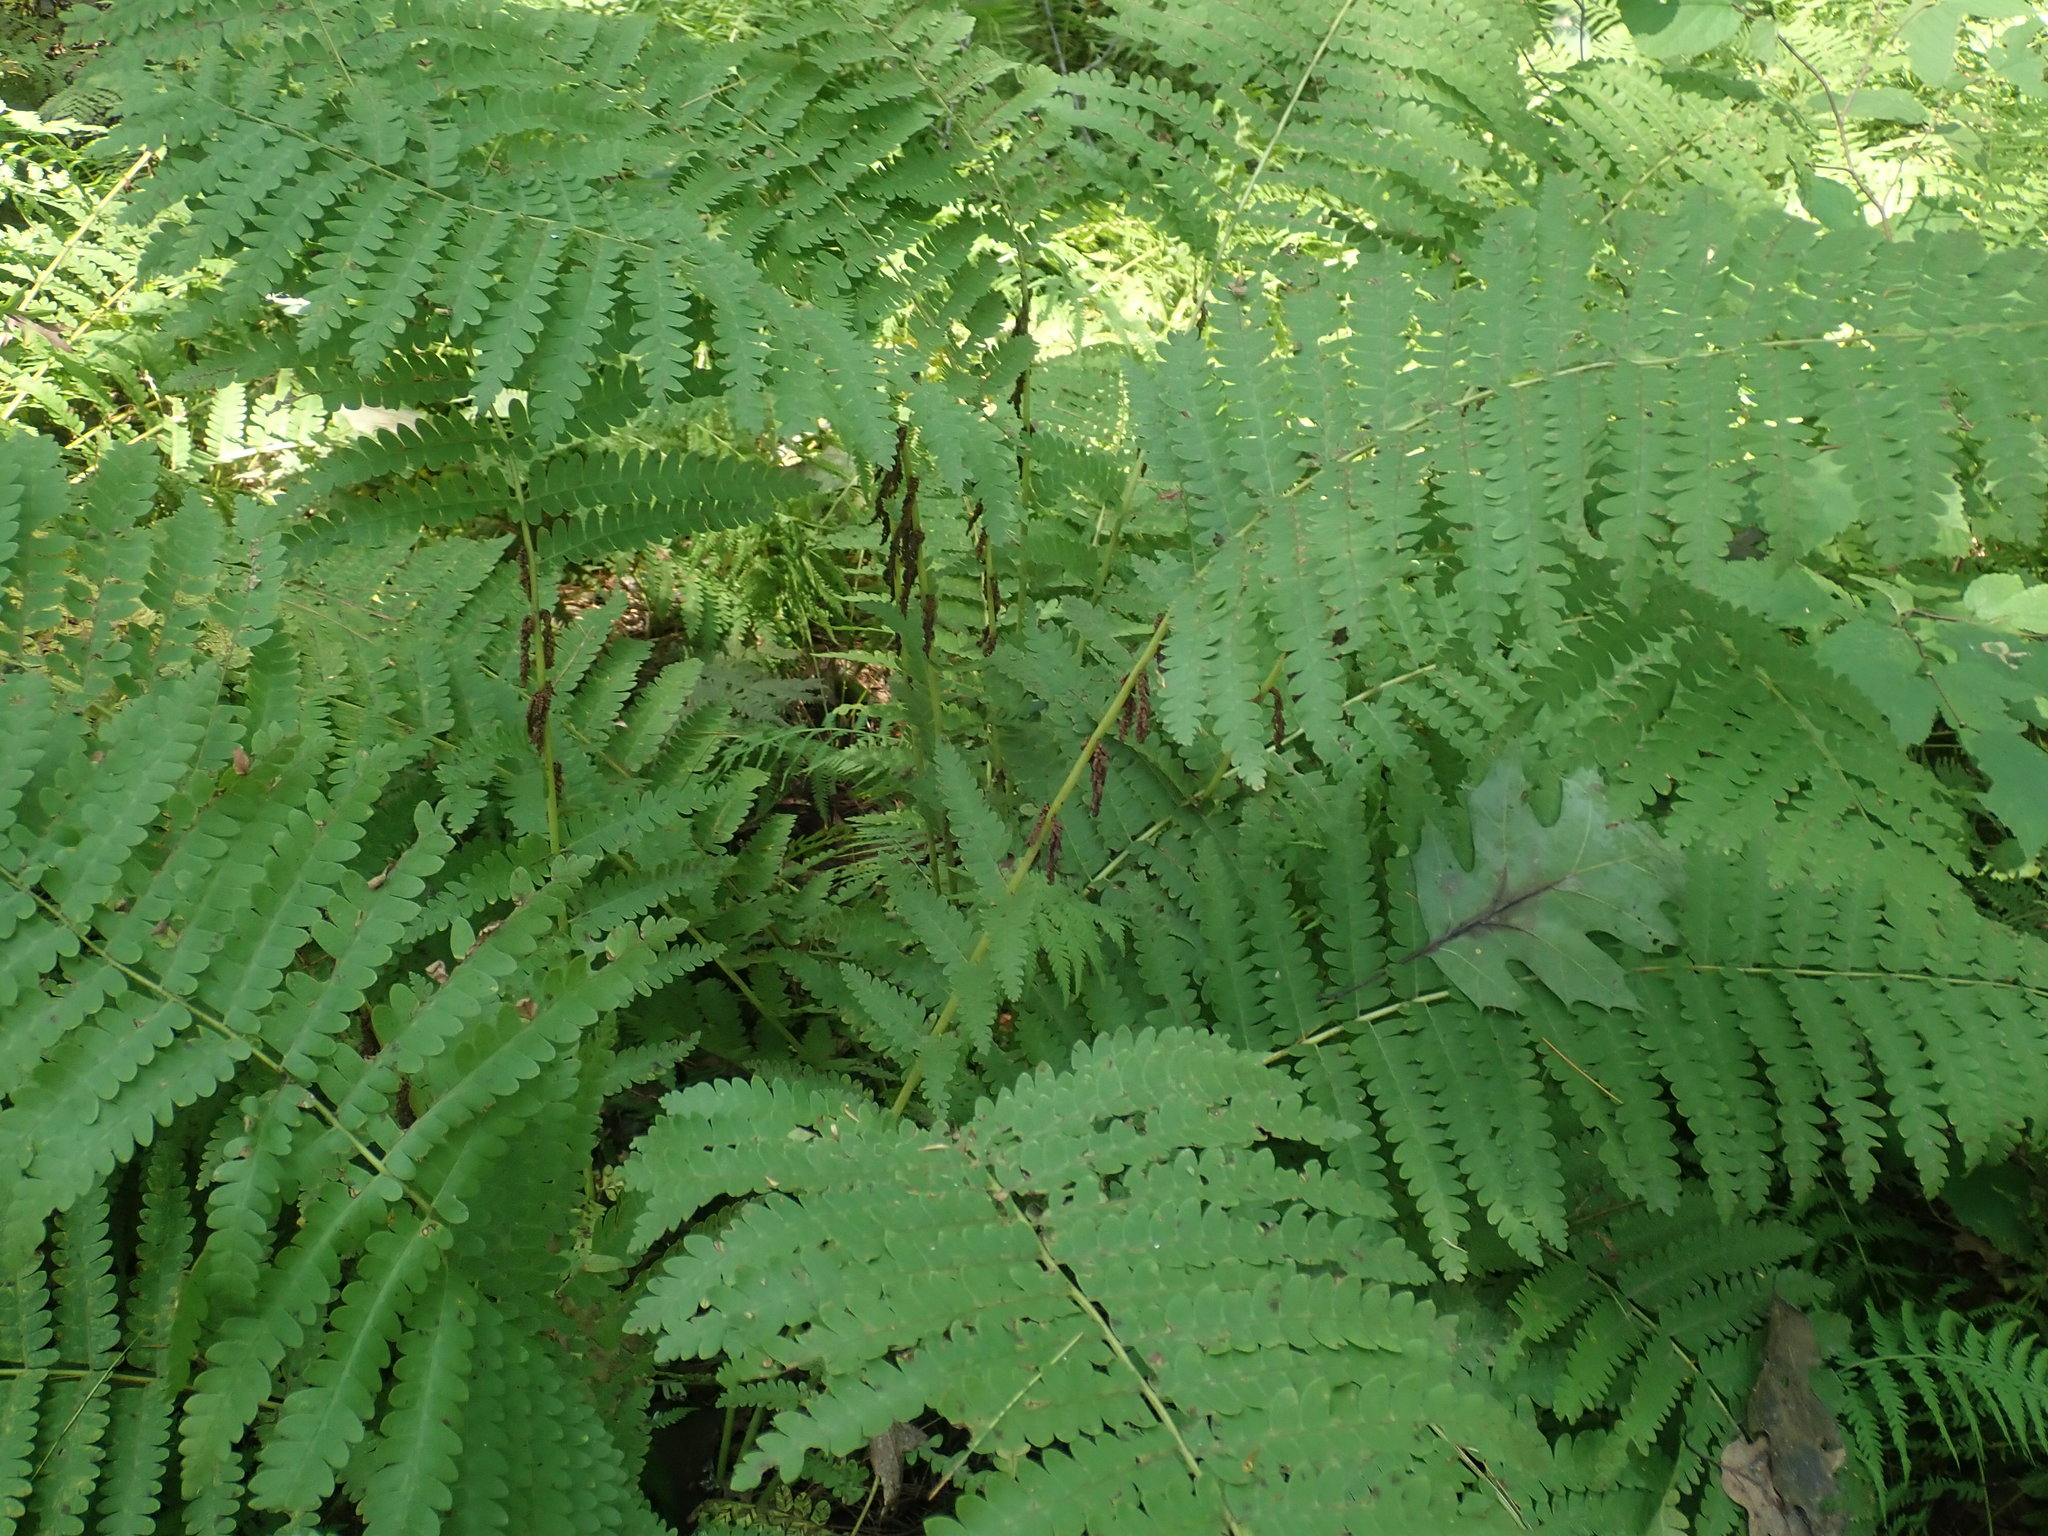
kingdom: Plantae
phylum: Tracheophyta
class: Polypodiopsida
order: Osmundales
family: Osmundaceae
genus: Claytosmunda
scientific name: Claytosmunda claytoniana
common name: Clayton's fern
